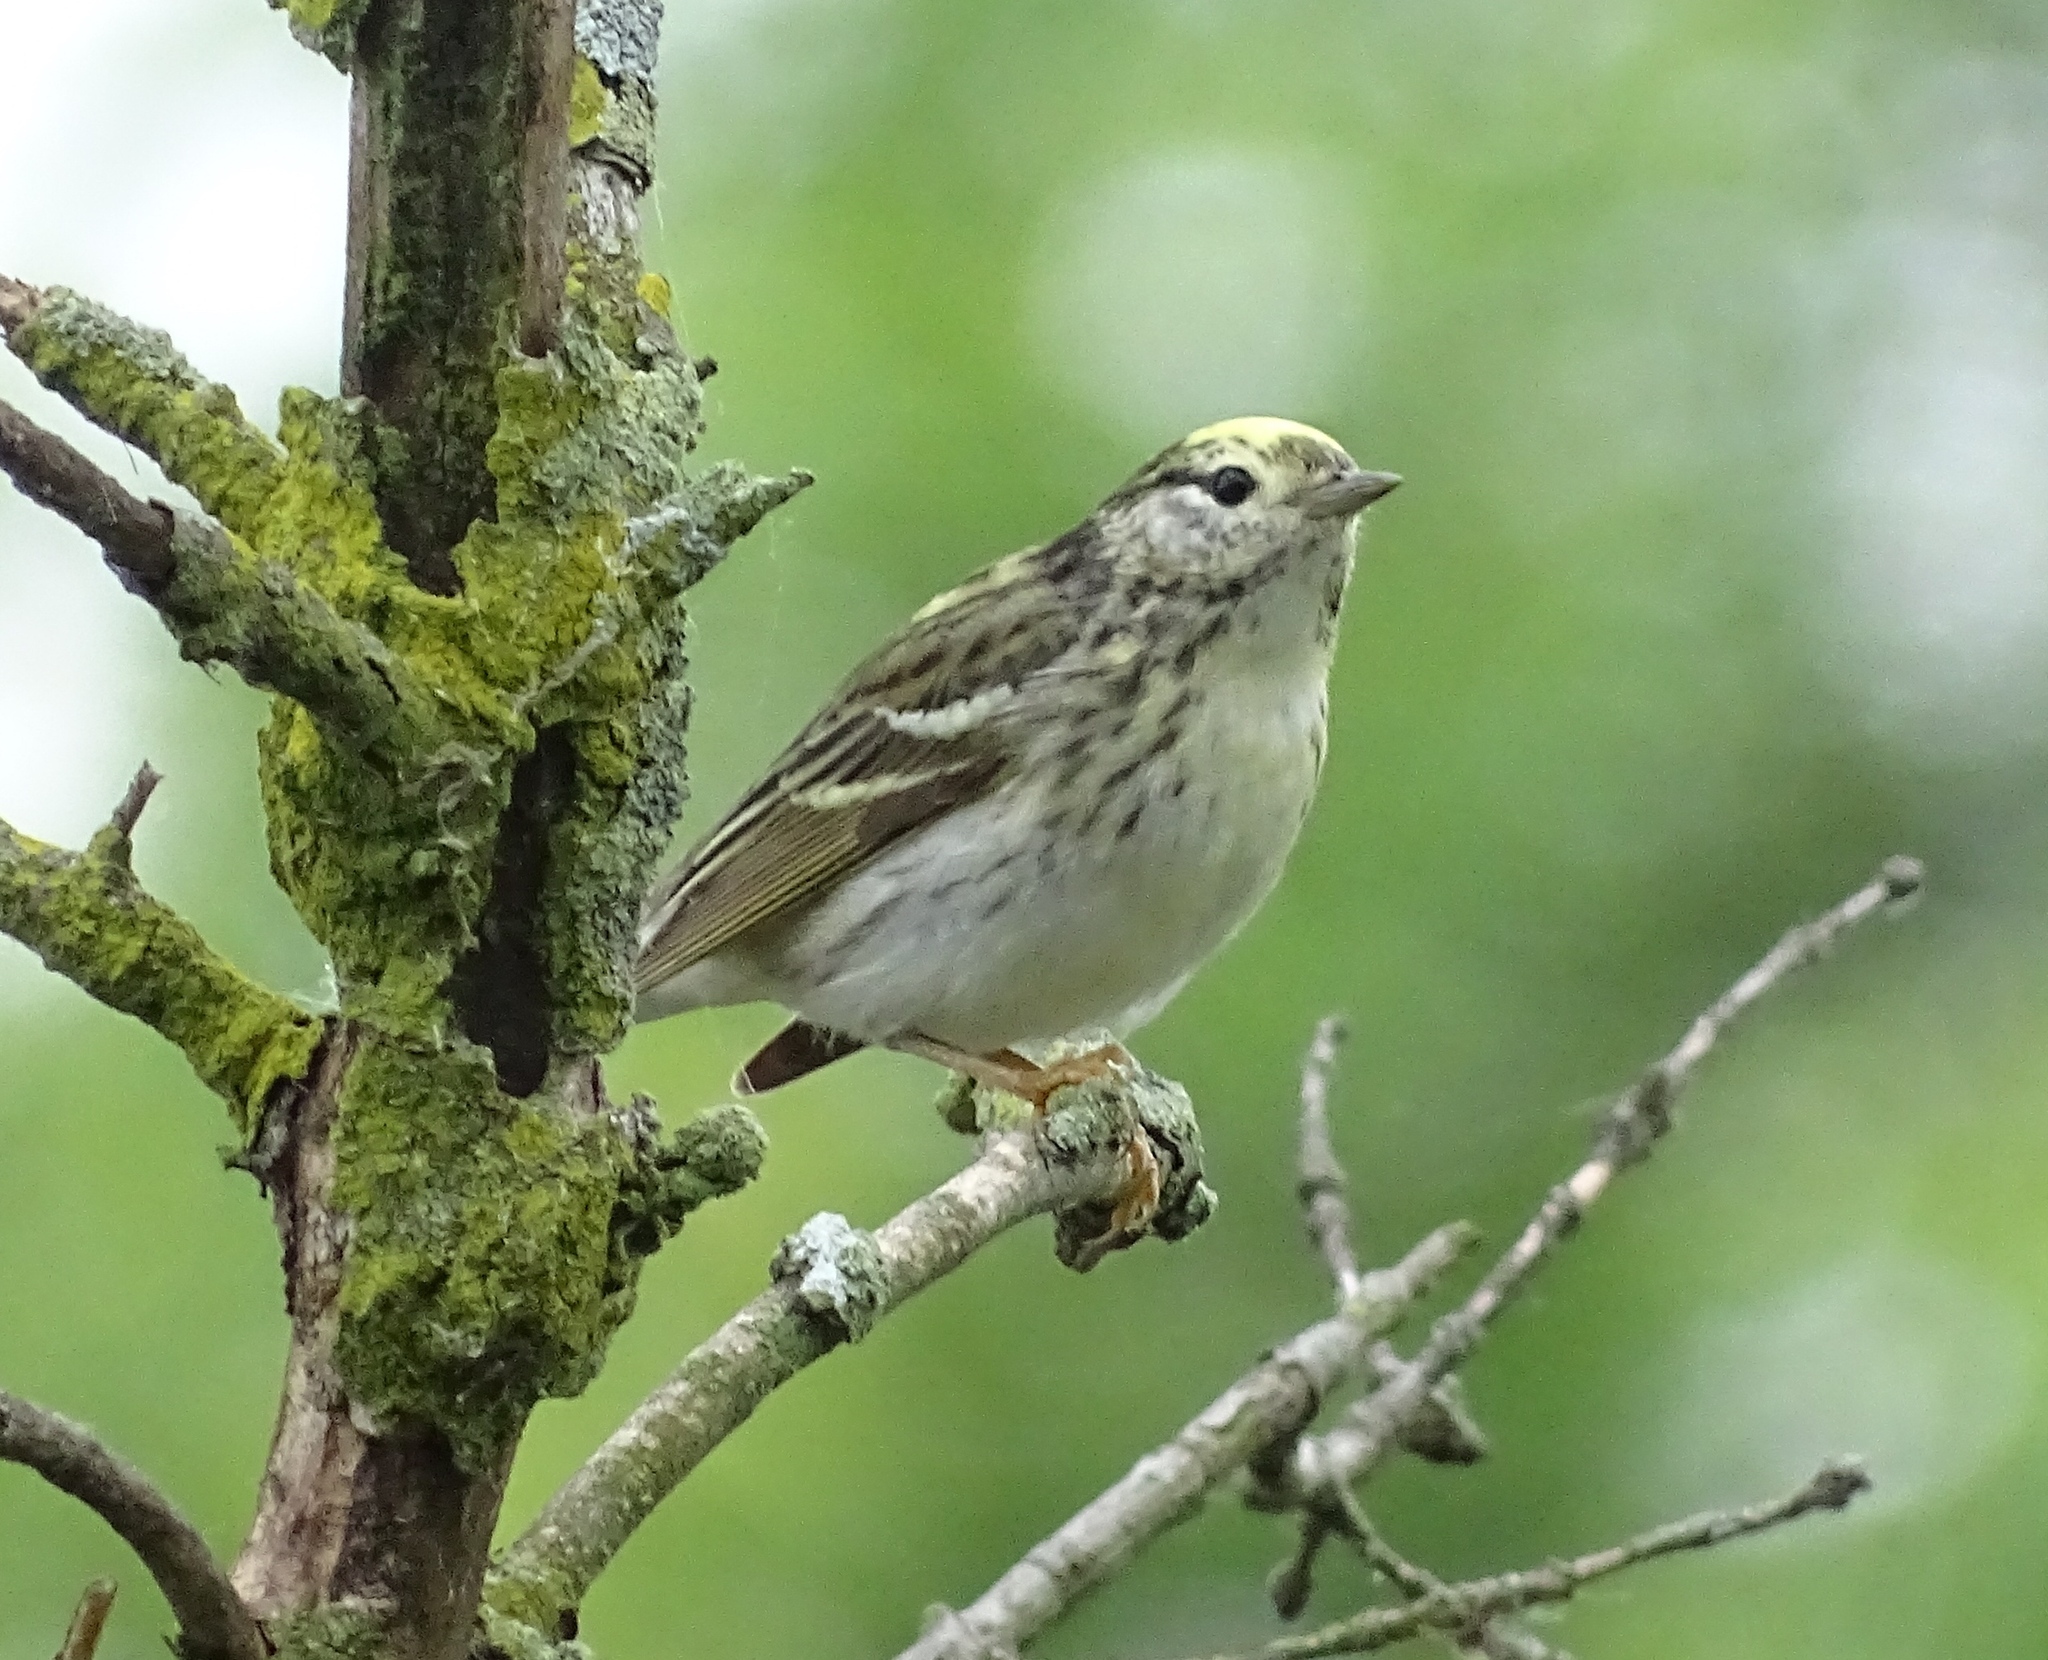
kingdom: Animalia
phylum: Chordata
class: Aves
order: Passeriformes
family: Parulidae
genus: Setophaga
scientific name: Setophaga striata
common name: Blackpoll warbler
